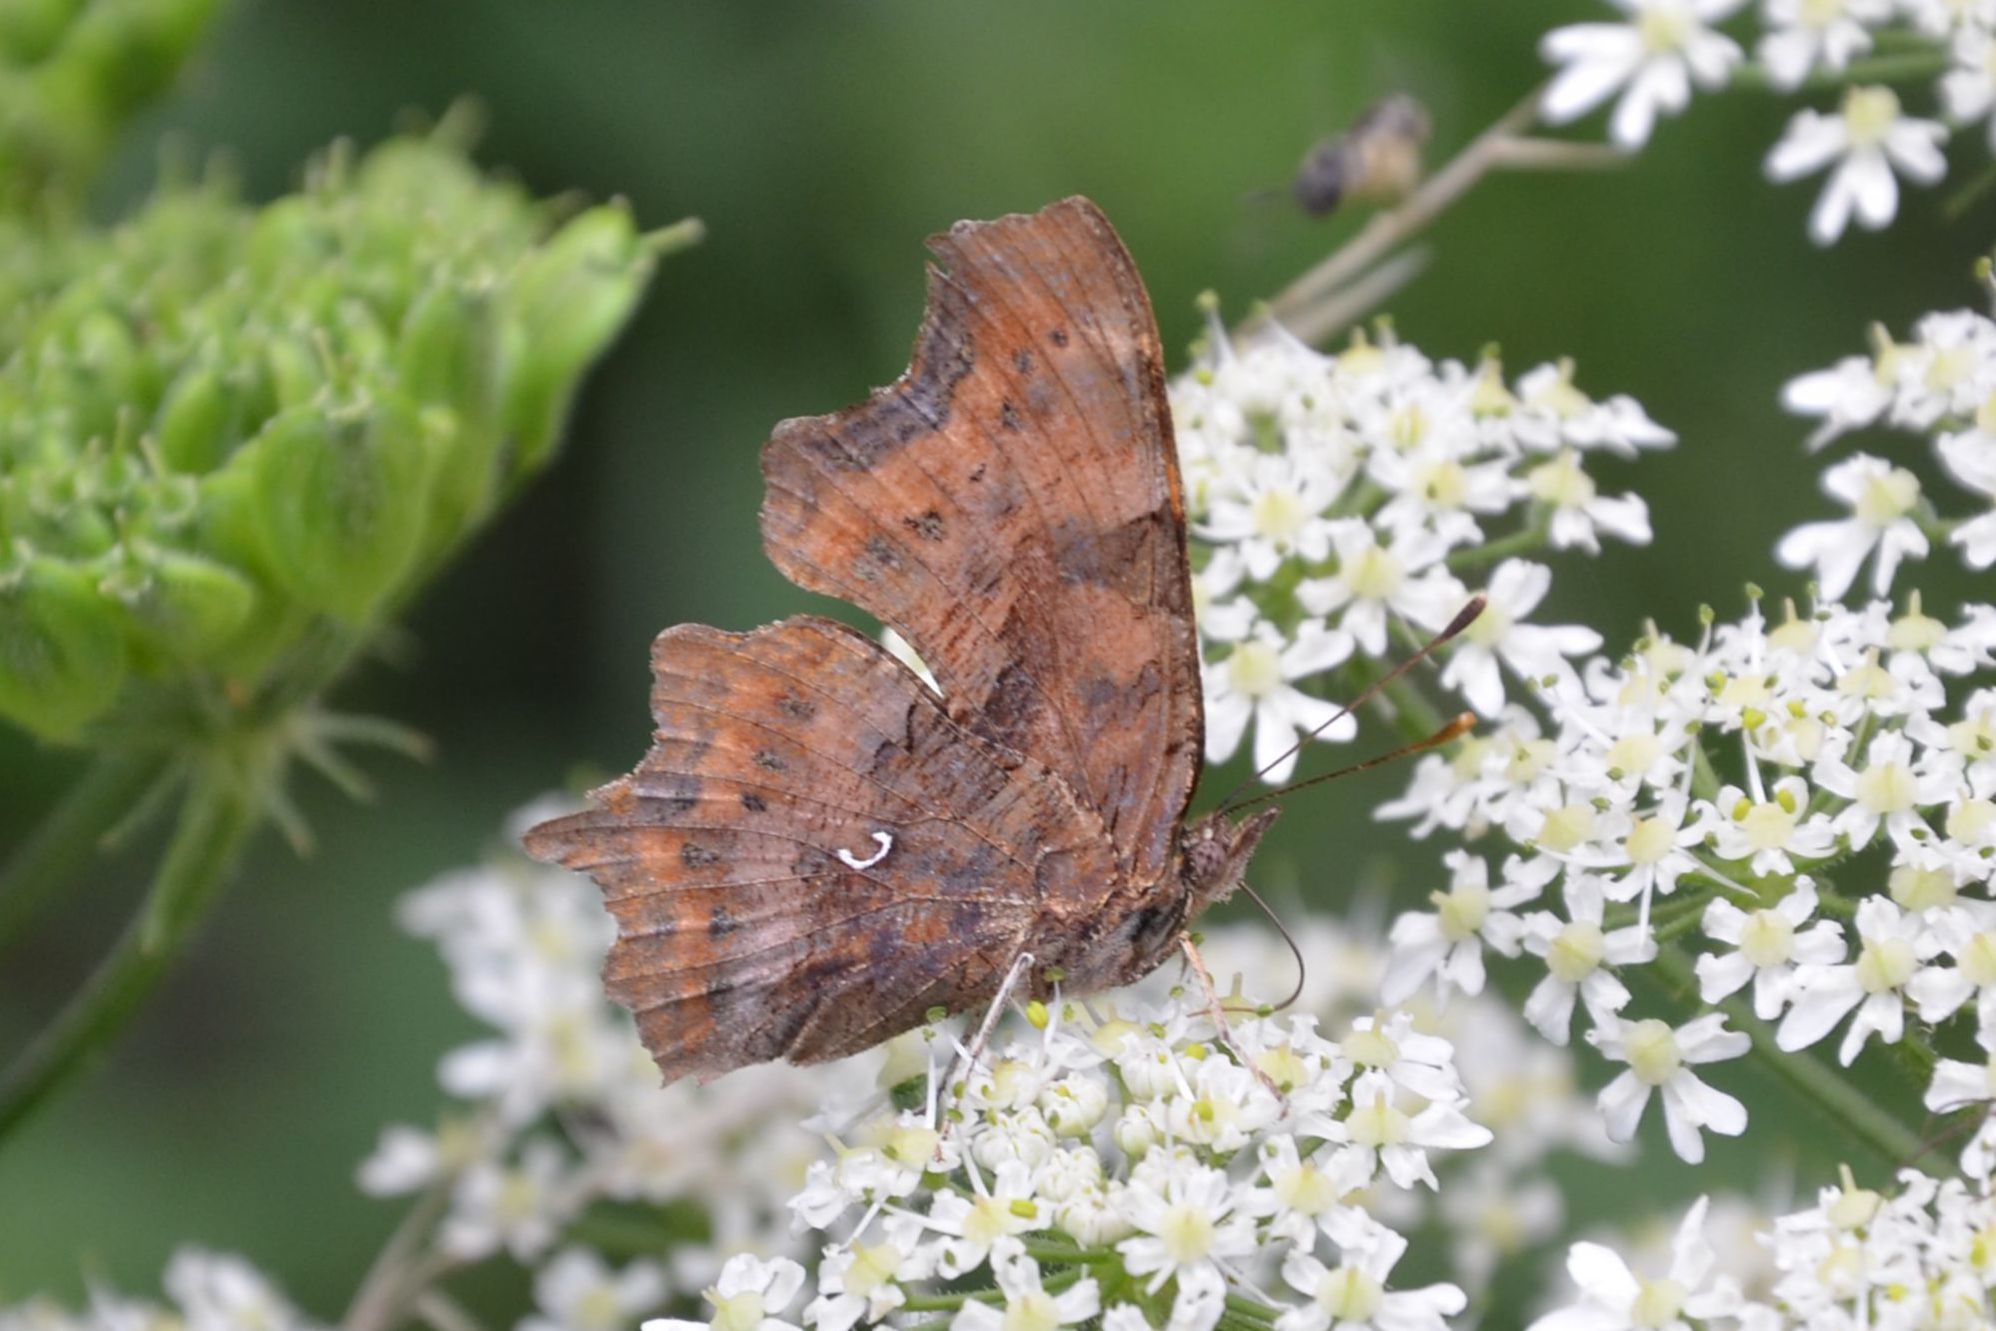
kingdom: Animalia
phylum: Arthropoda
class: Insecta
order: Lepidoptera
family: Nymphalidae
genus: Polygonia
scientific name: Polygonia c-album
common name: Comma
